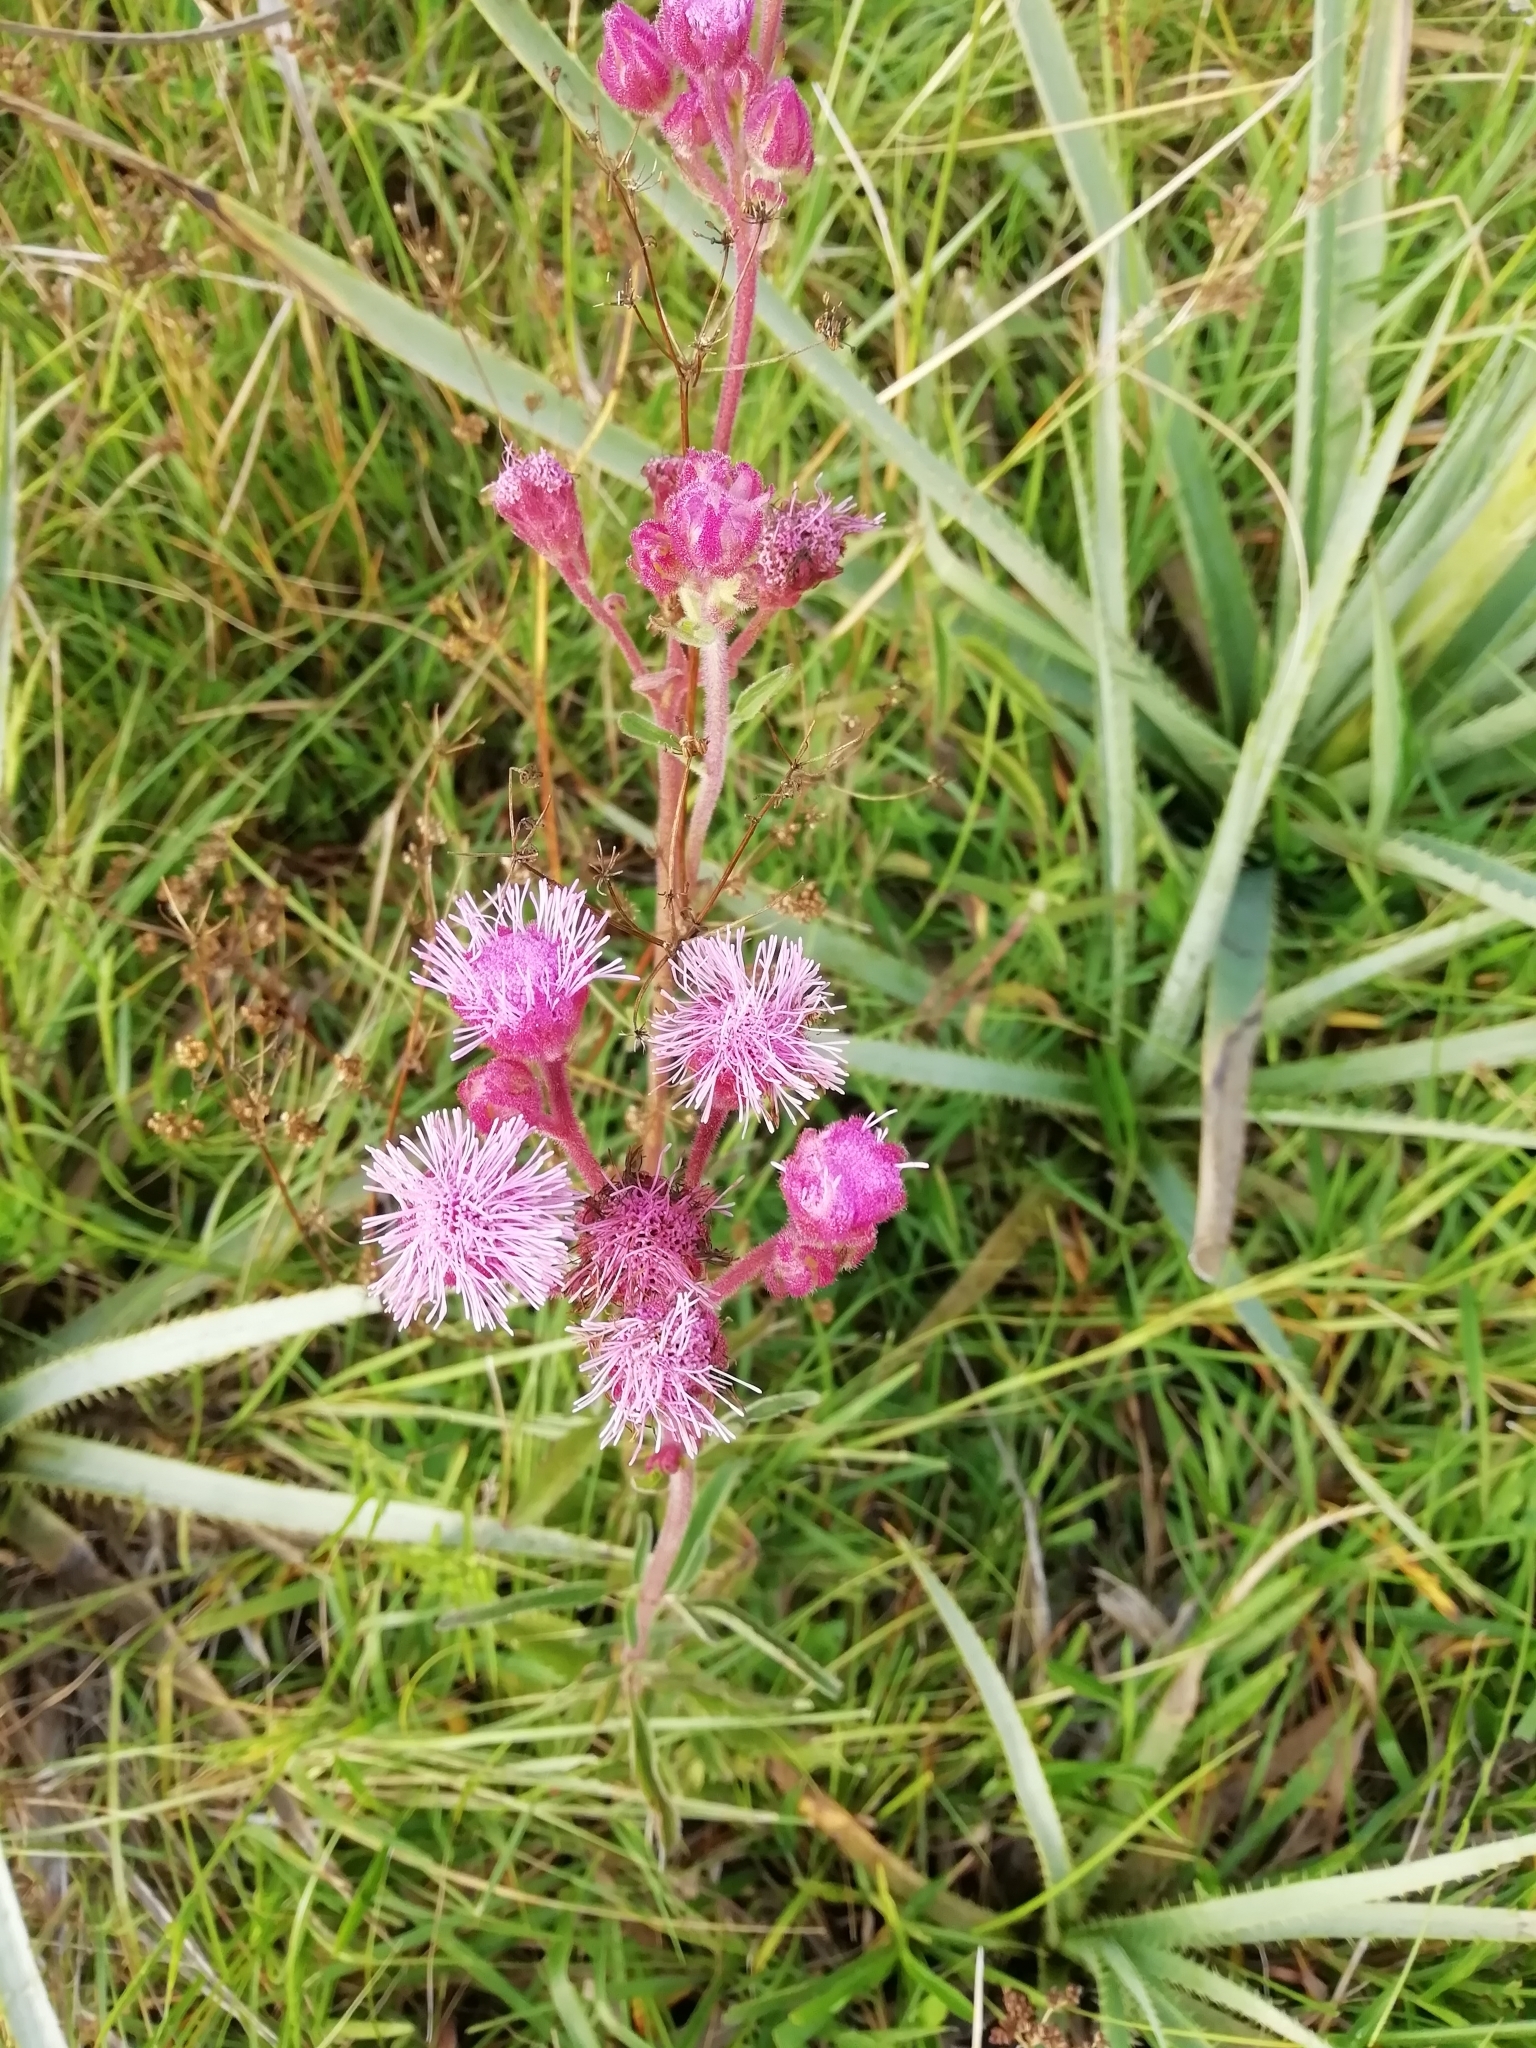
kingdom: Plantae
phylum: Tracheophyta
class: Magnoliopsida
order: Asterales
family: Asteraceae
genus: Campuloclinium
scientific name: Campuloclinium macrocephalum
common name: Pompomweed
